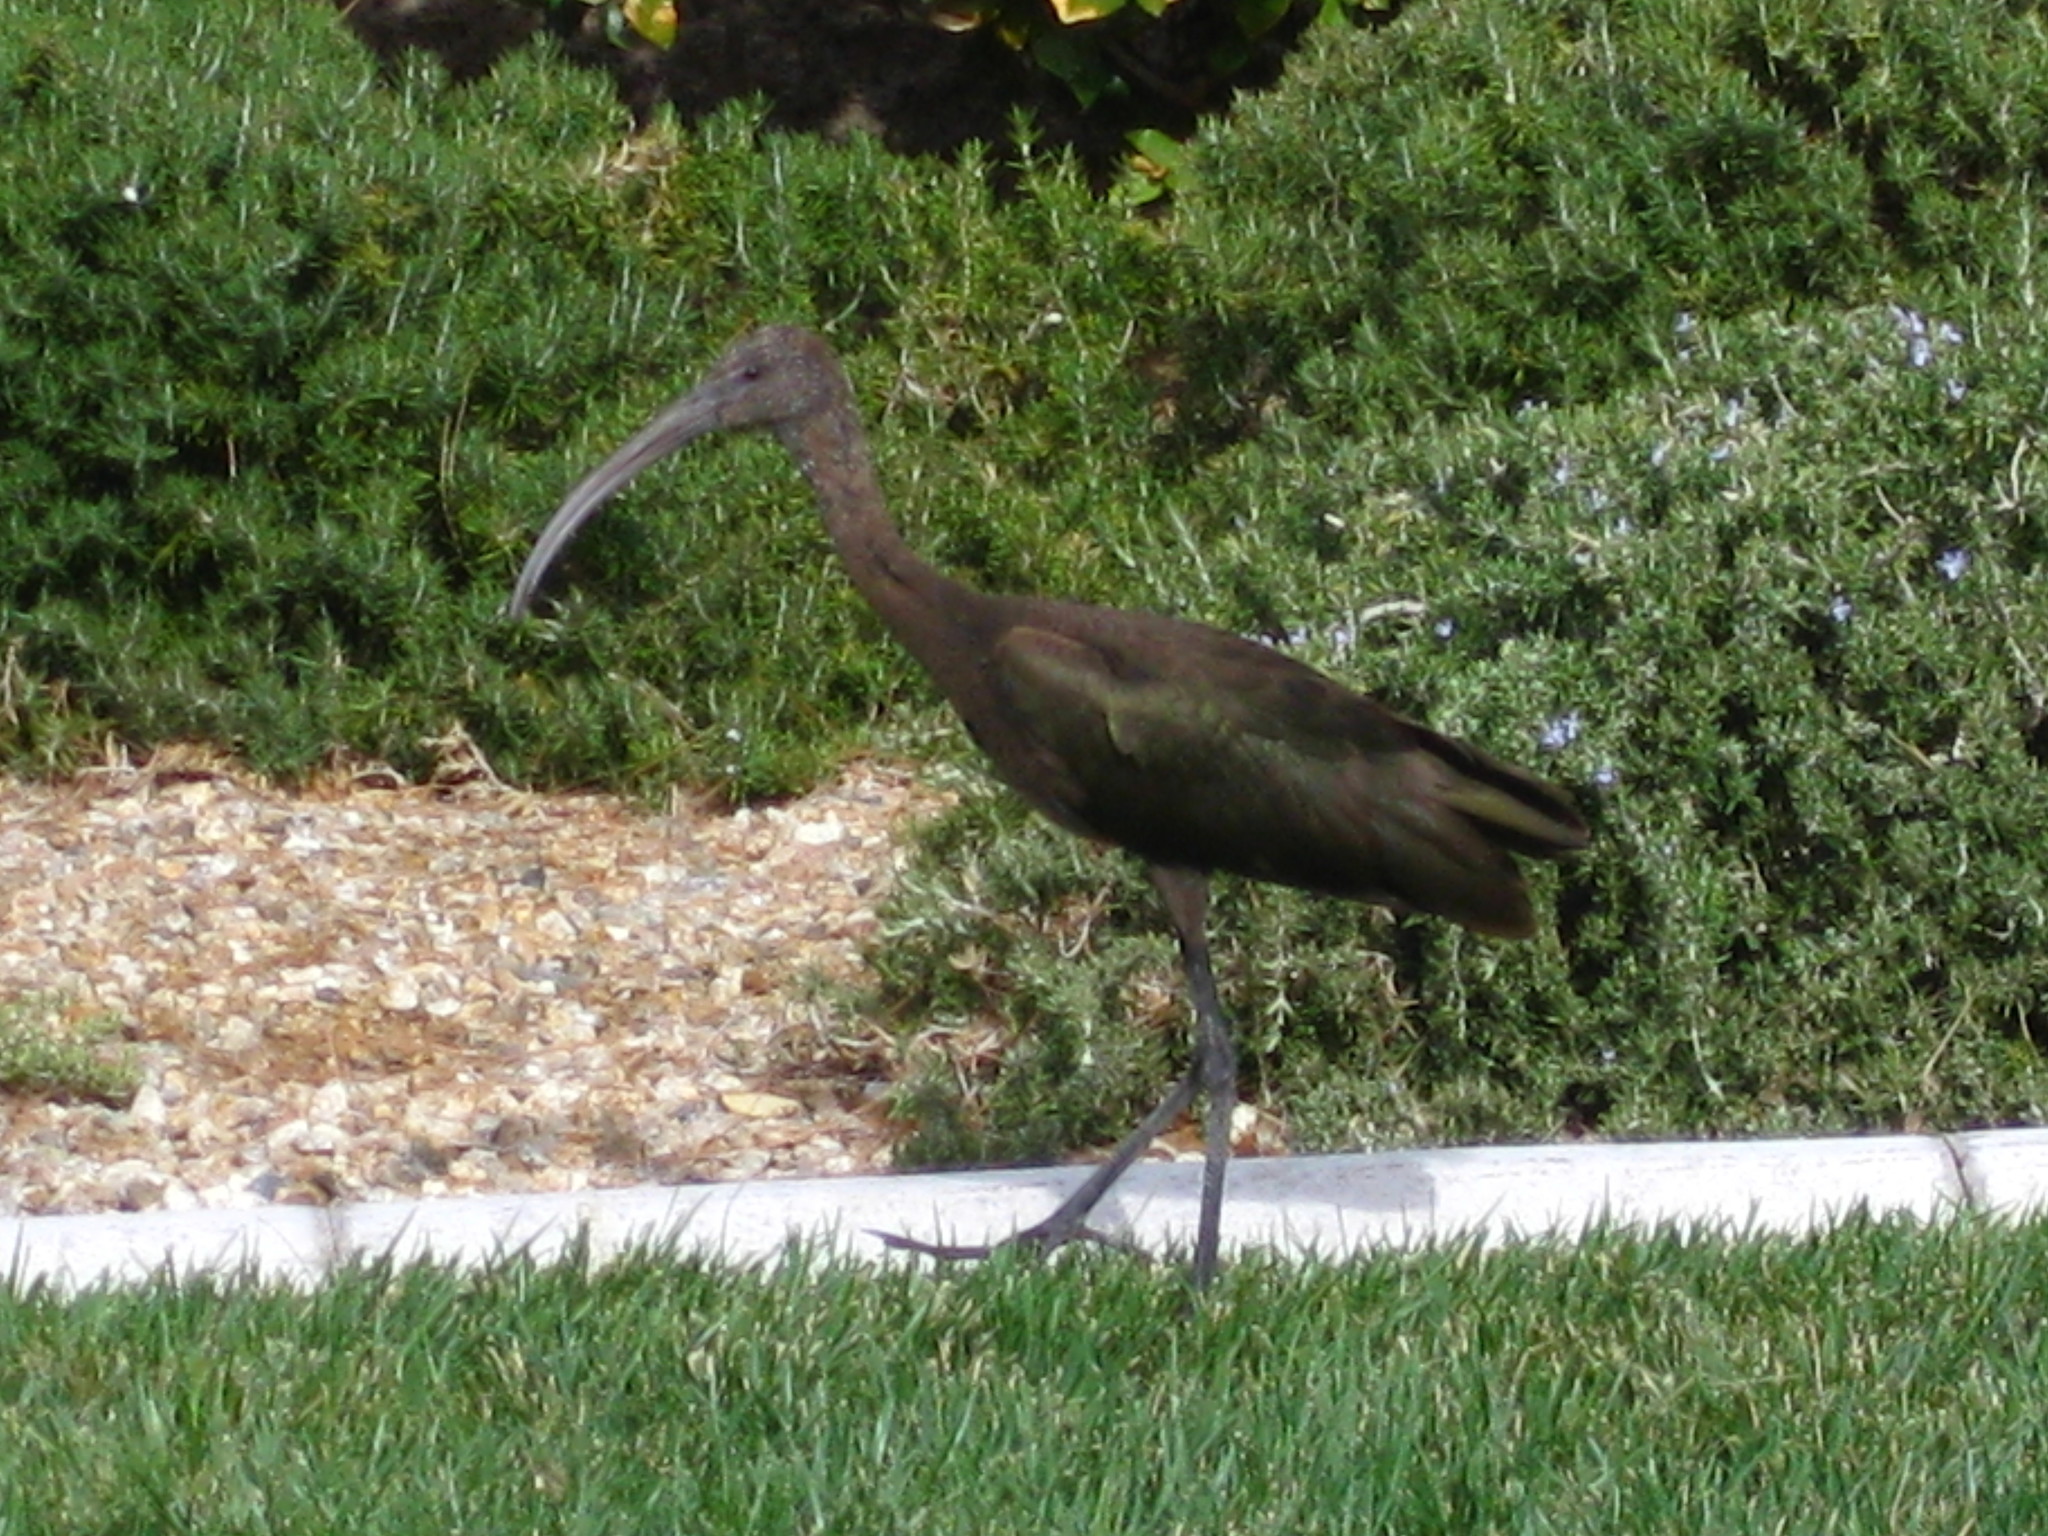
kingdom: Animalia
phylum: Chordata
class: Aves
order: Pelecaniformes
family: Threskiornithidae
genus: Plegadis
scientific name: Plegadis chihi
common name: White-faced ibis
